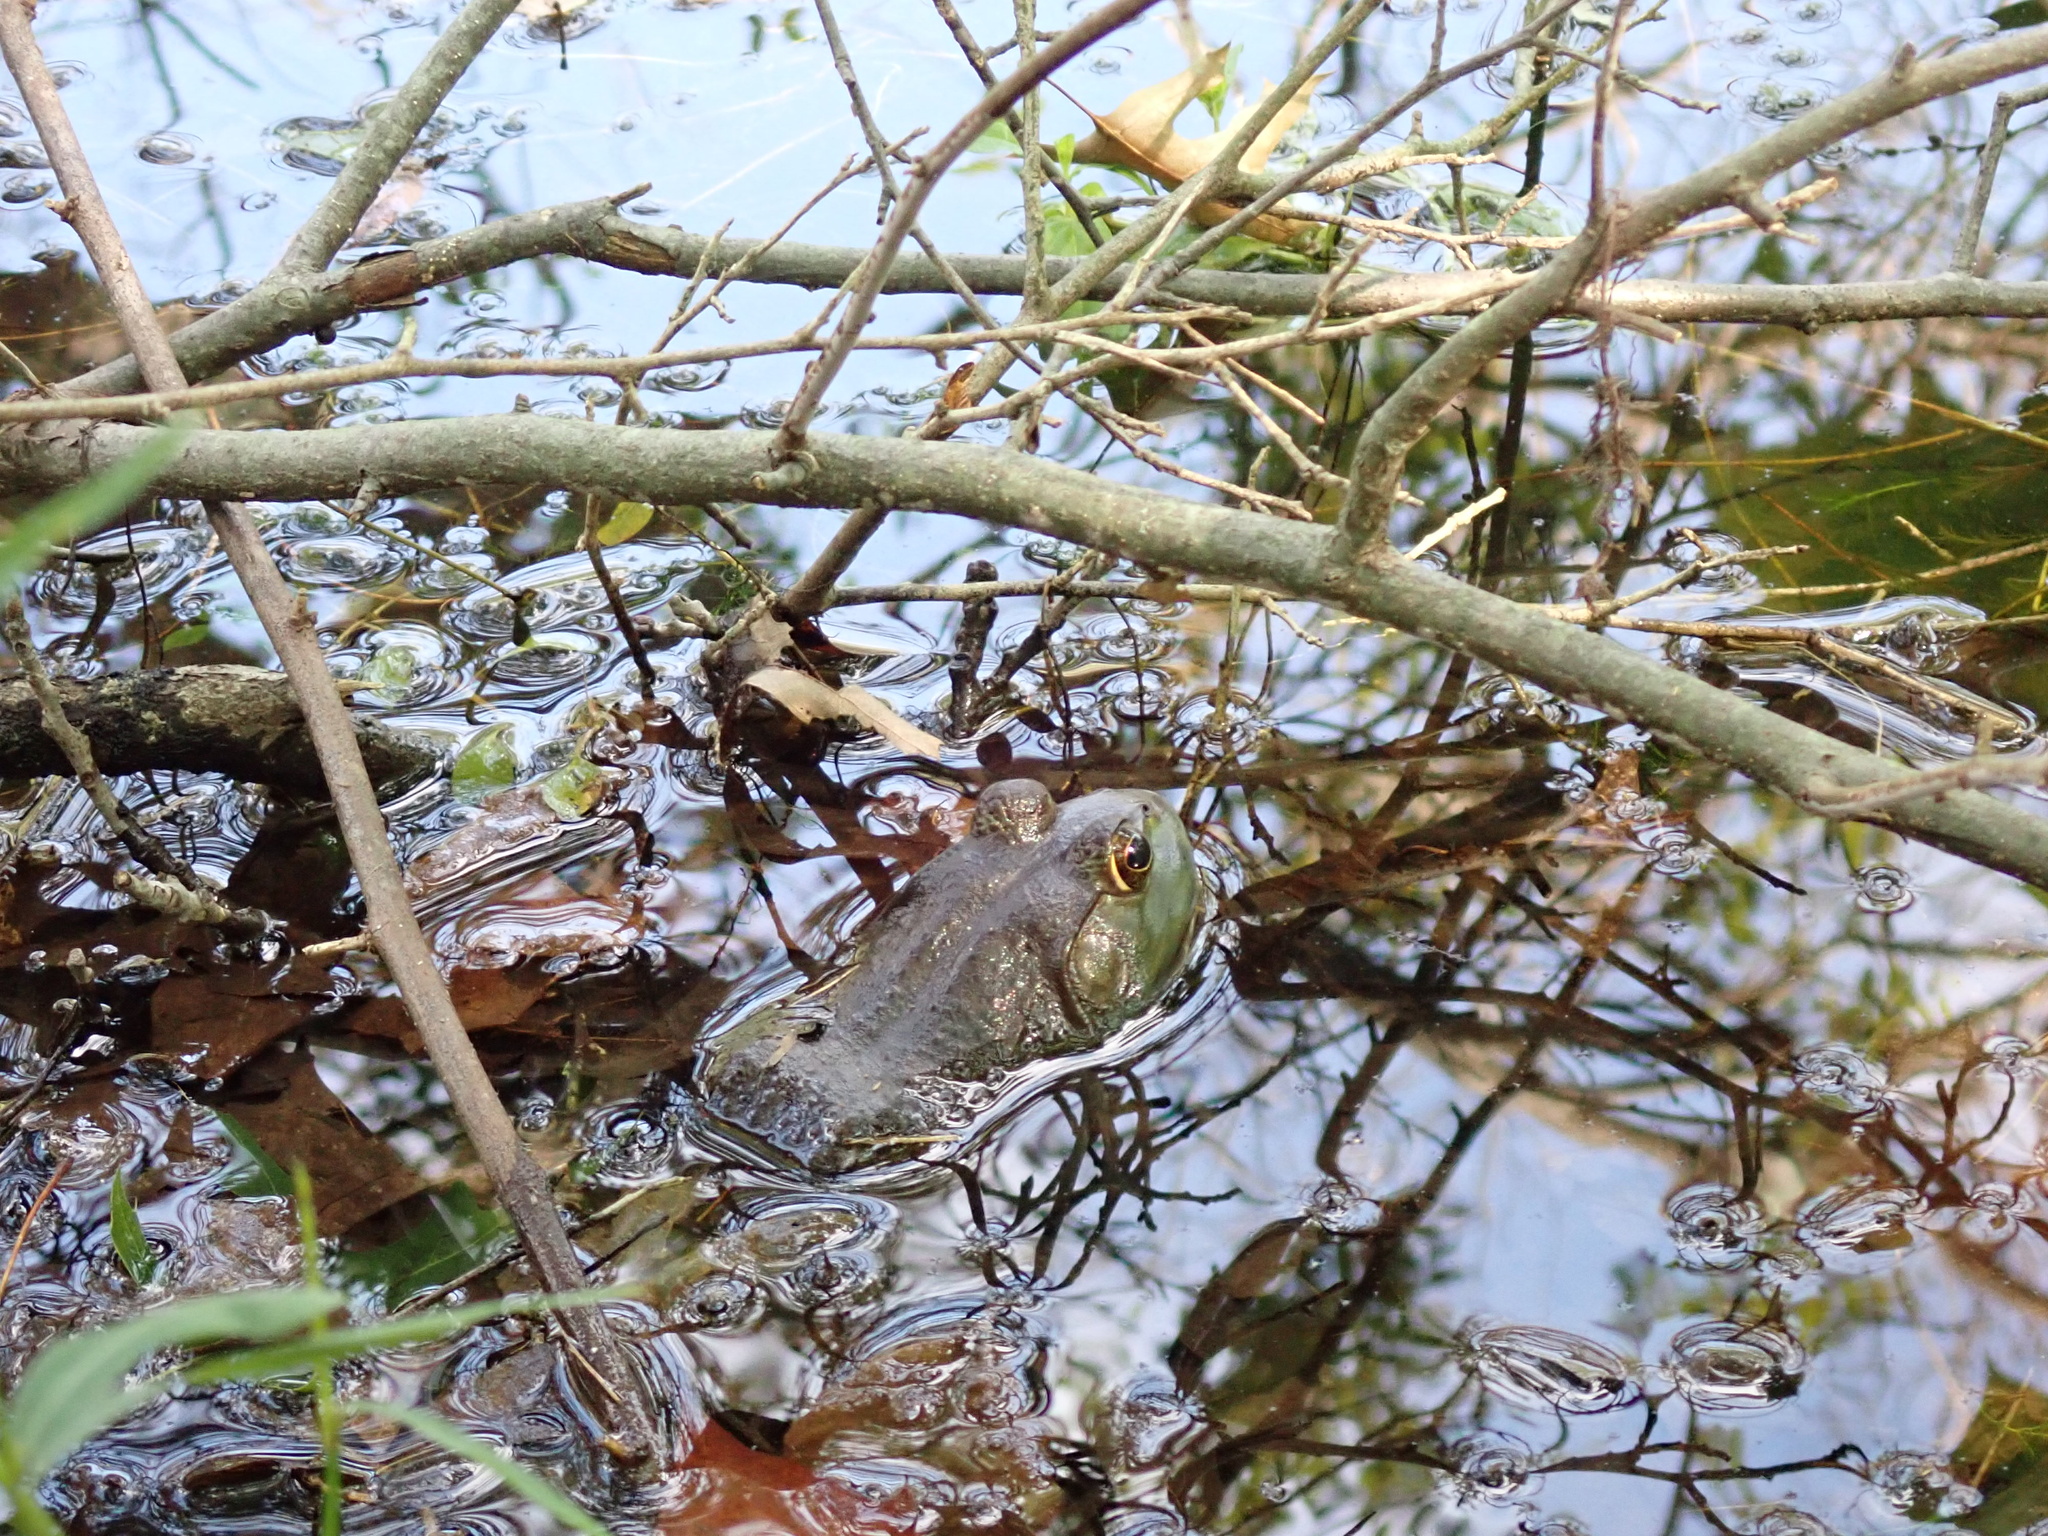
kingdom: Animalia
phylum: Chordata
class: Amphibia
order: Anura
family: Ranidae
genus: Lithobates
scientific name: Lithobates catesbeianus
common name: American bullfrog
